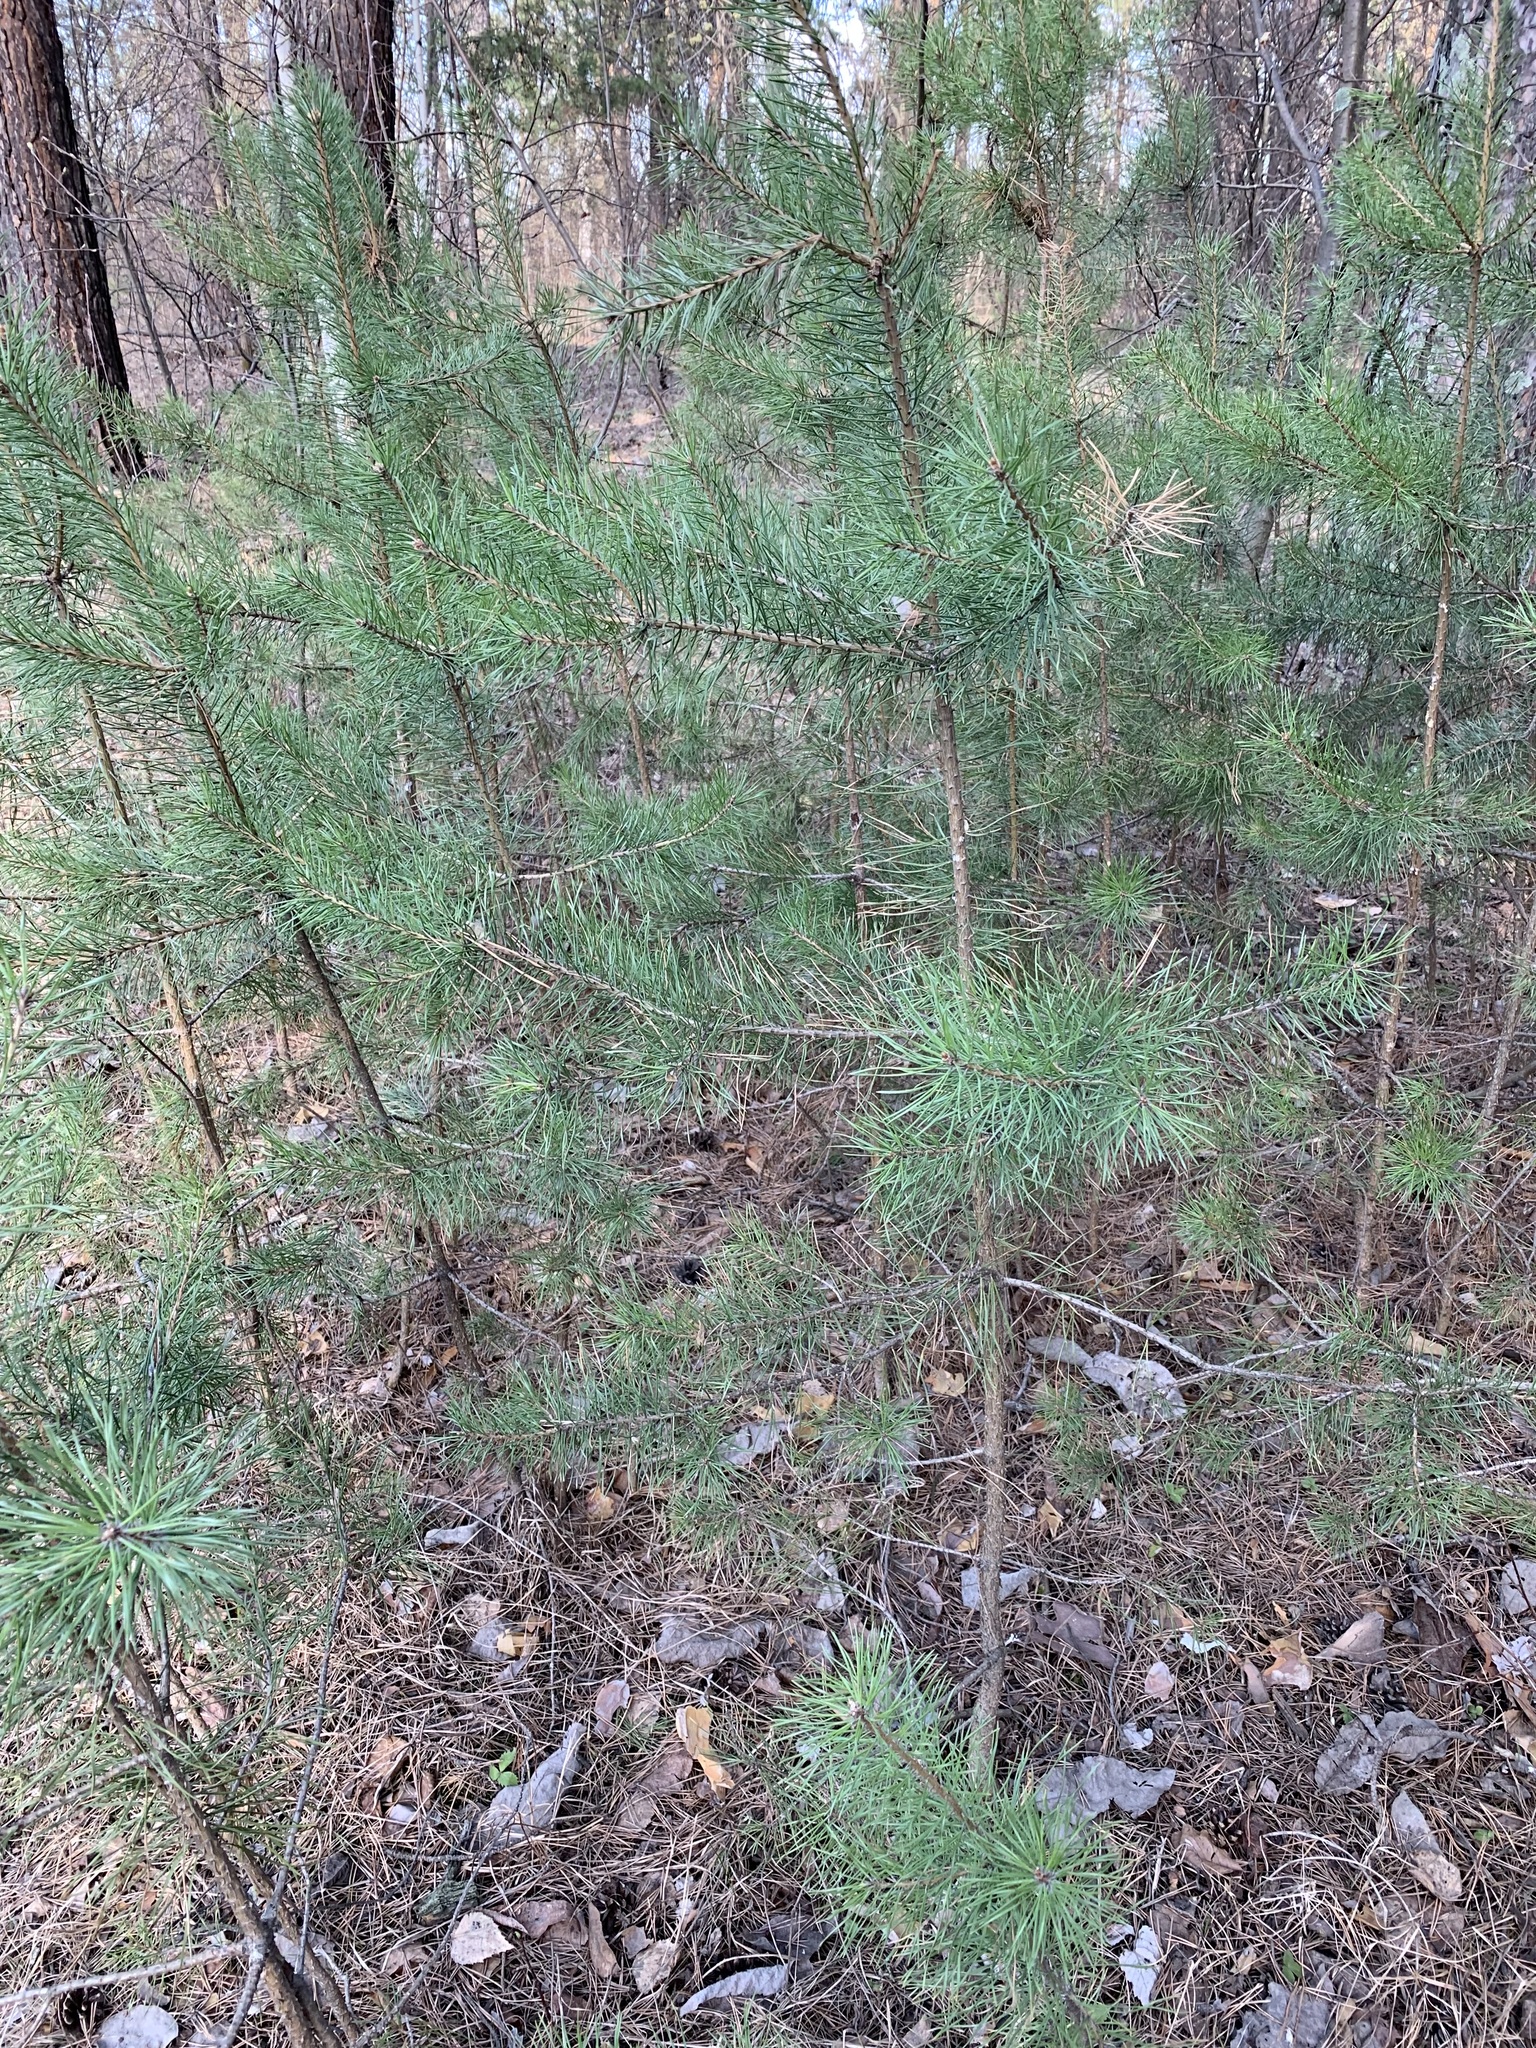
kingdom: Plantae
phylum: Tracheophyta
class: Pinopsida
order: Pinales
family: Pinaceae
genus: Pinus
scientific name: Pinus sylvestris
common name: Scots pine
